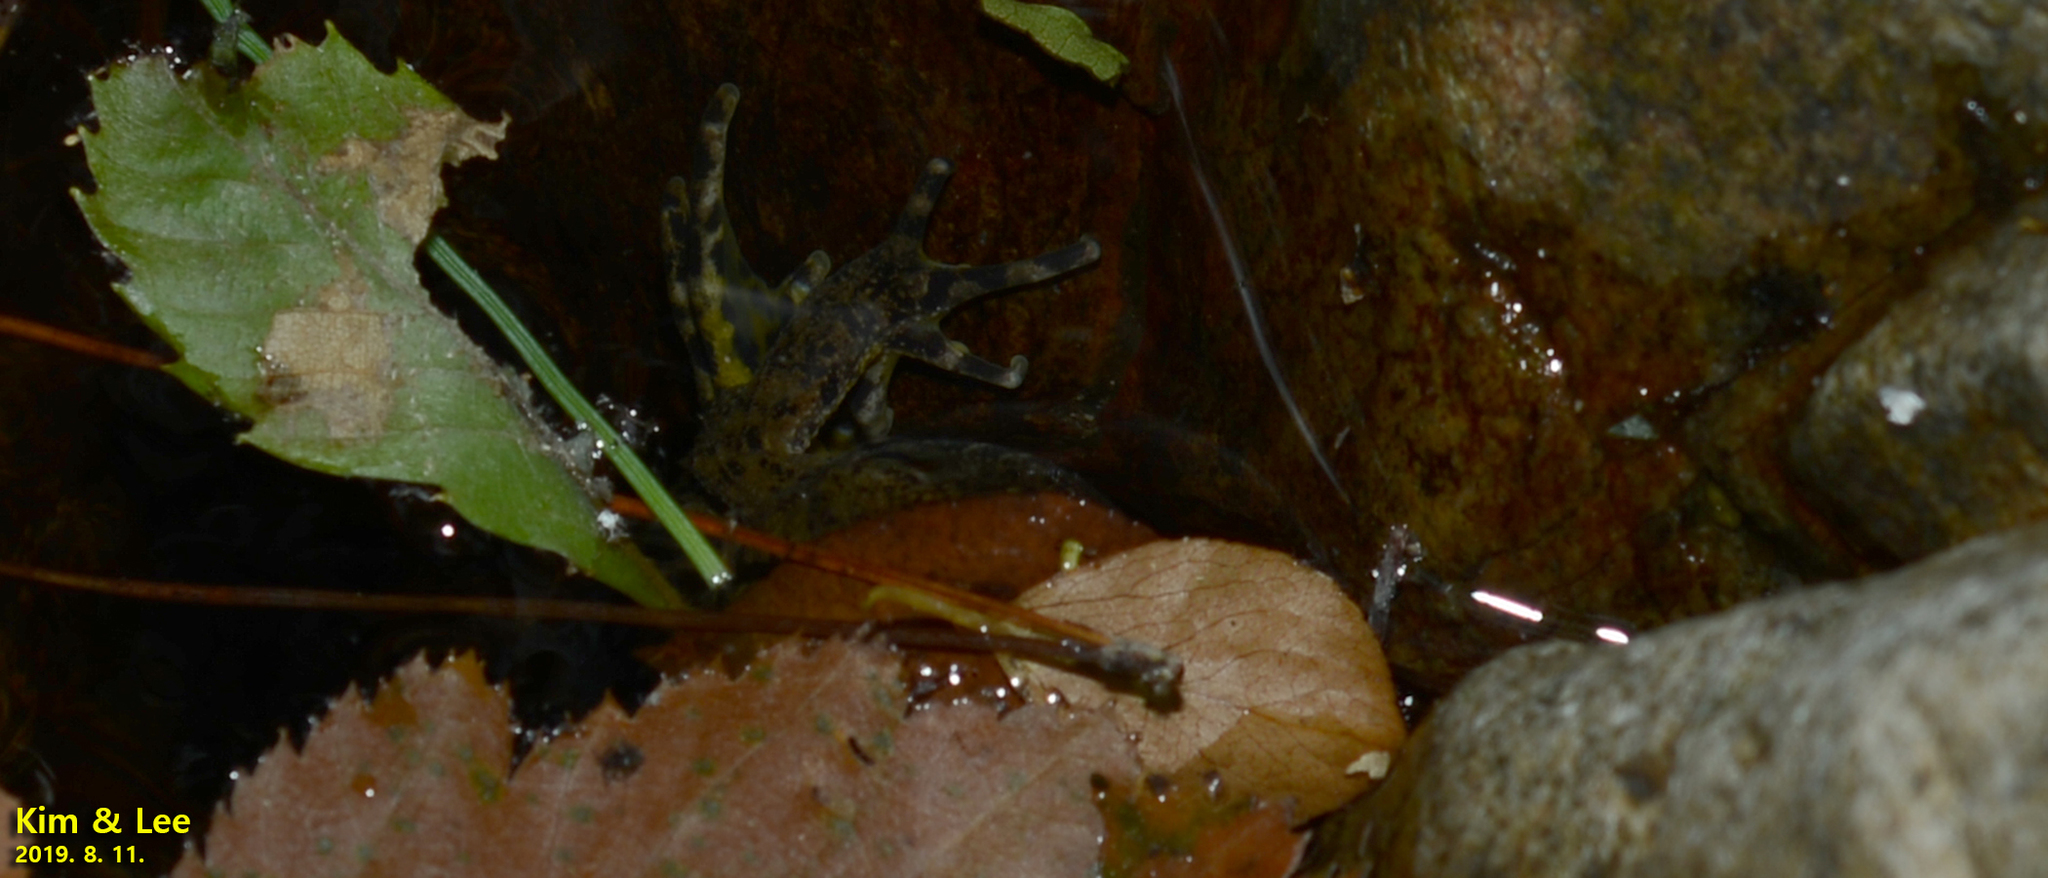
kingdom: Animalia
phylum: Chordata
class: Amphibia
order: Anura
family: Ranidae
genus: Glandirana
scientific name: Glandirana emeljanovi
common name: Northeast china rough-skinned frog
